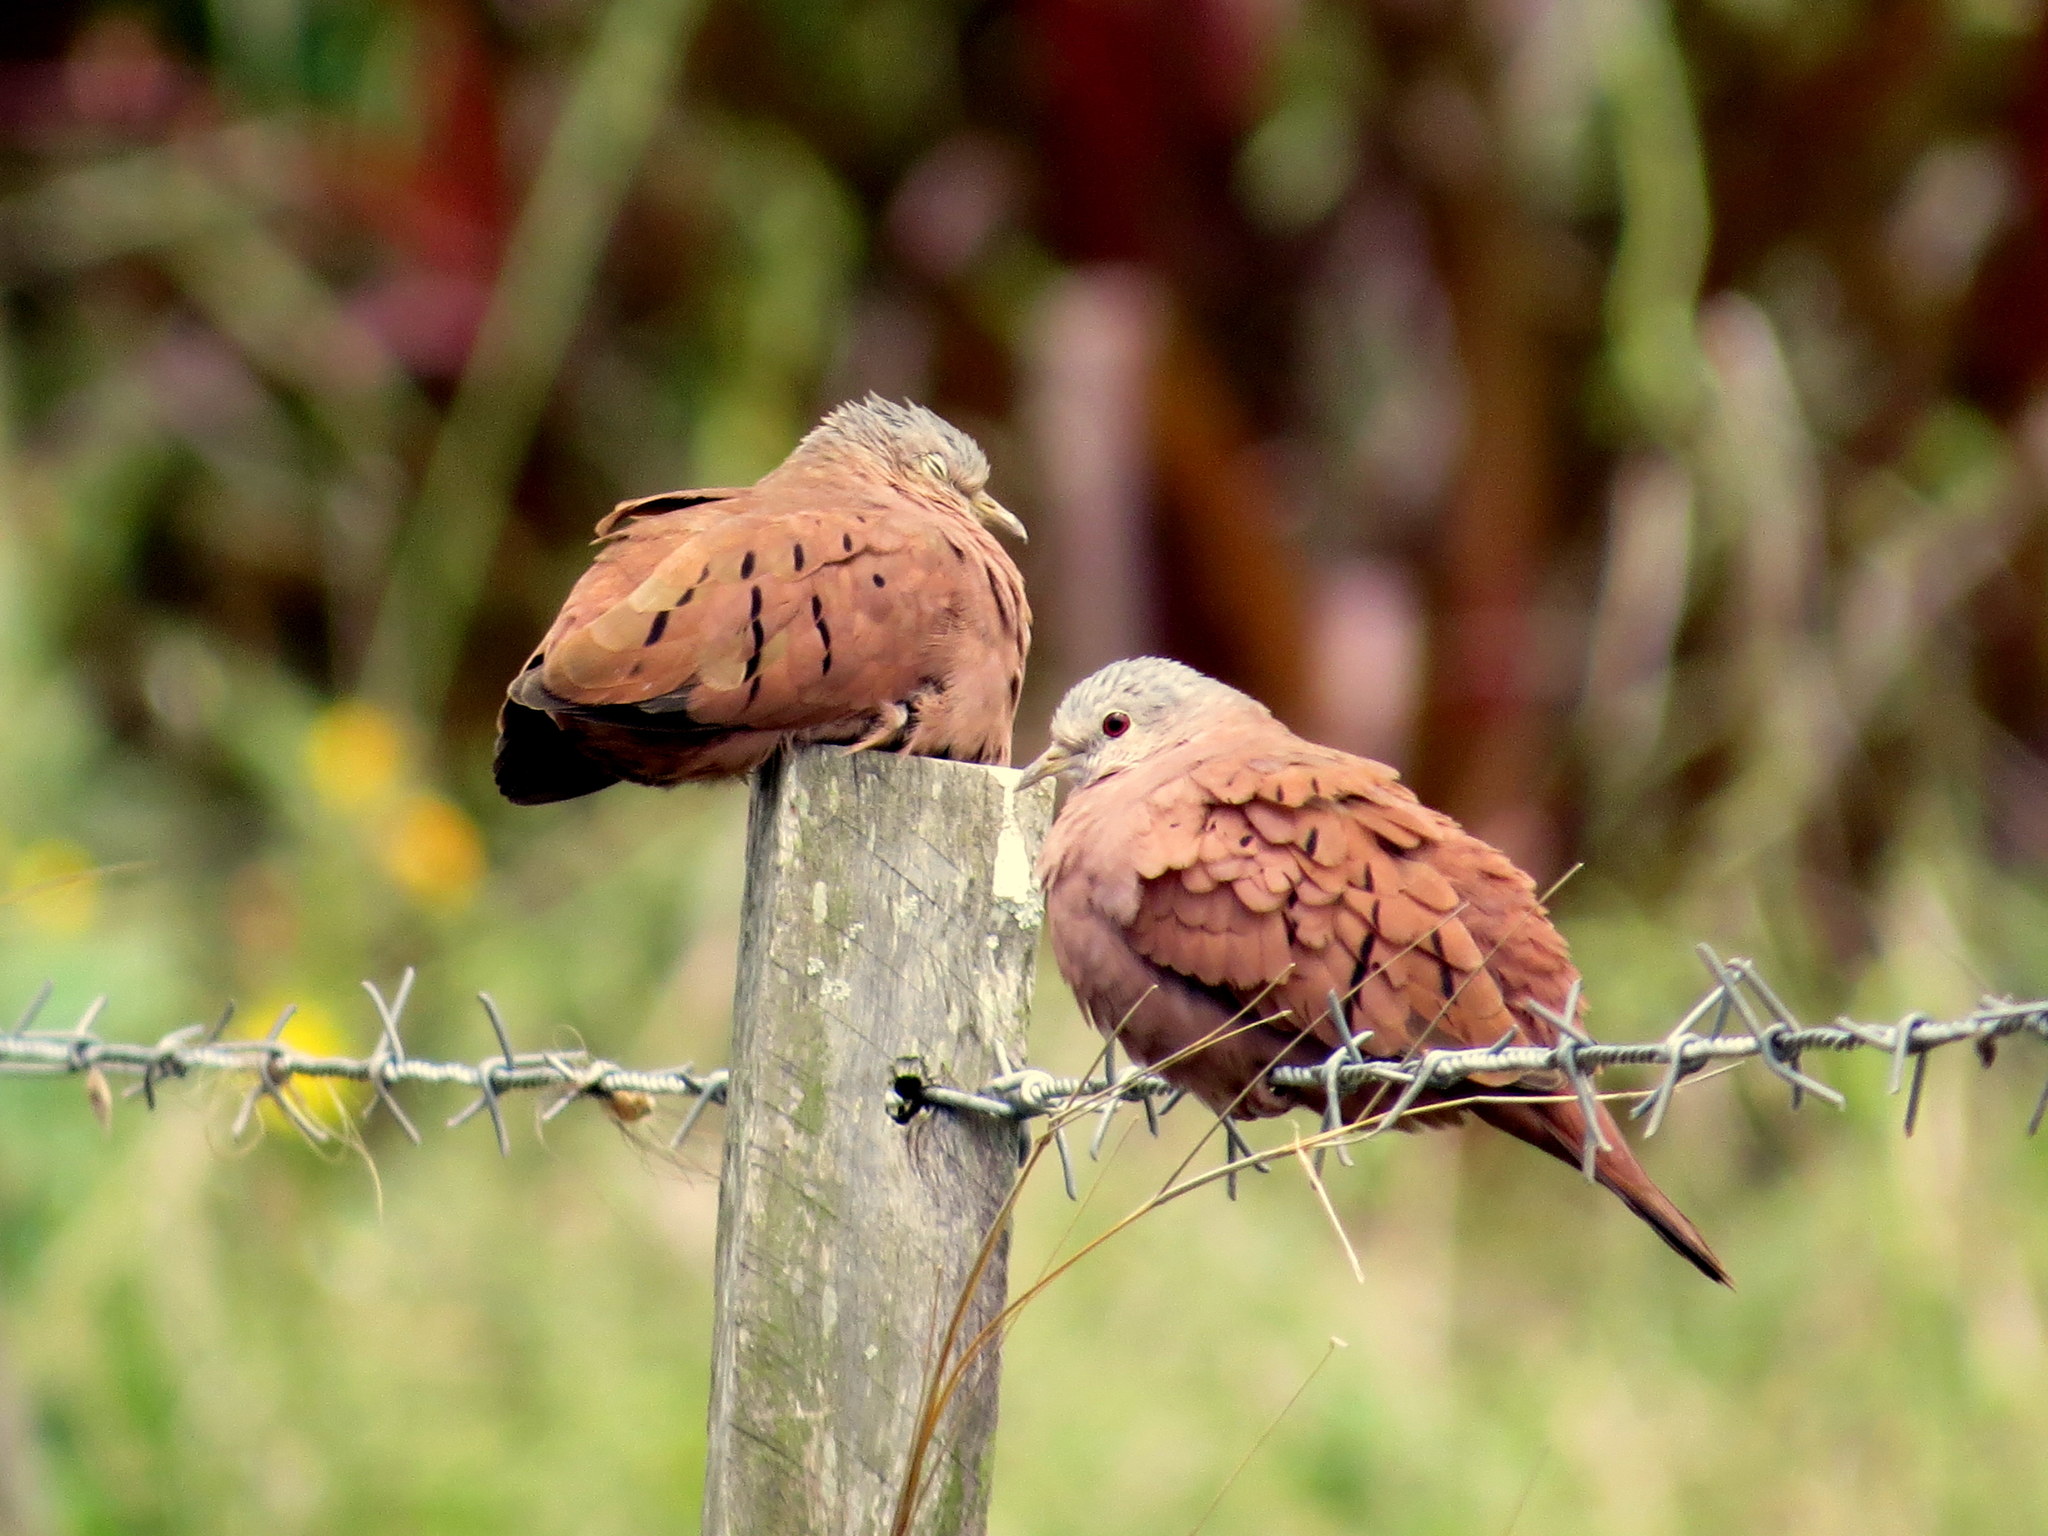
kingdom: Animalia
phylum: Chordata
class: Aves
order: Columbiformes
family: Columbidae
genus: Columbina
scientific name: Columbina talpacoti
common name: Ruddy ground dove
